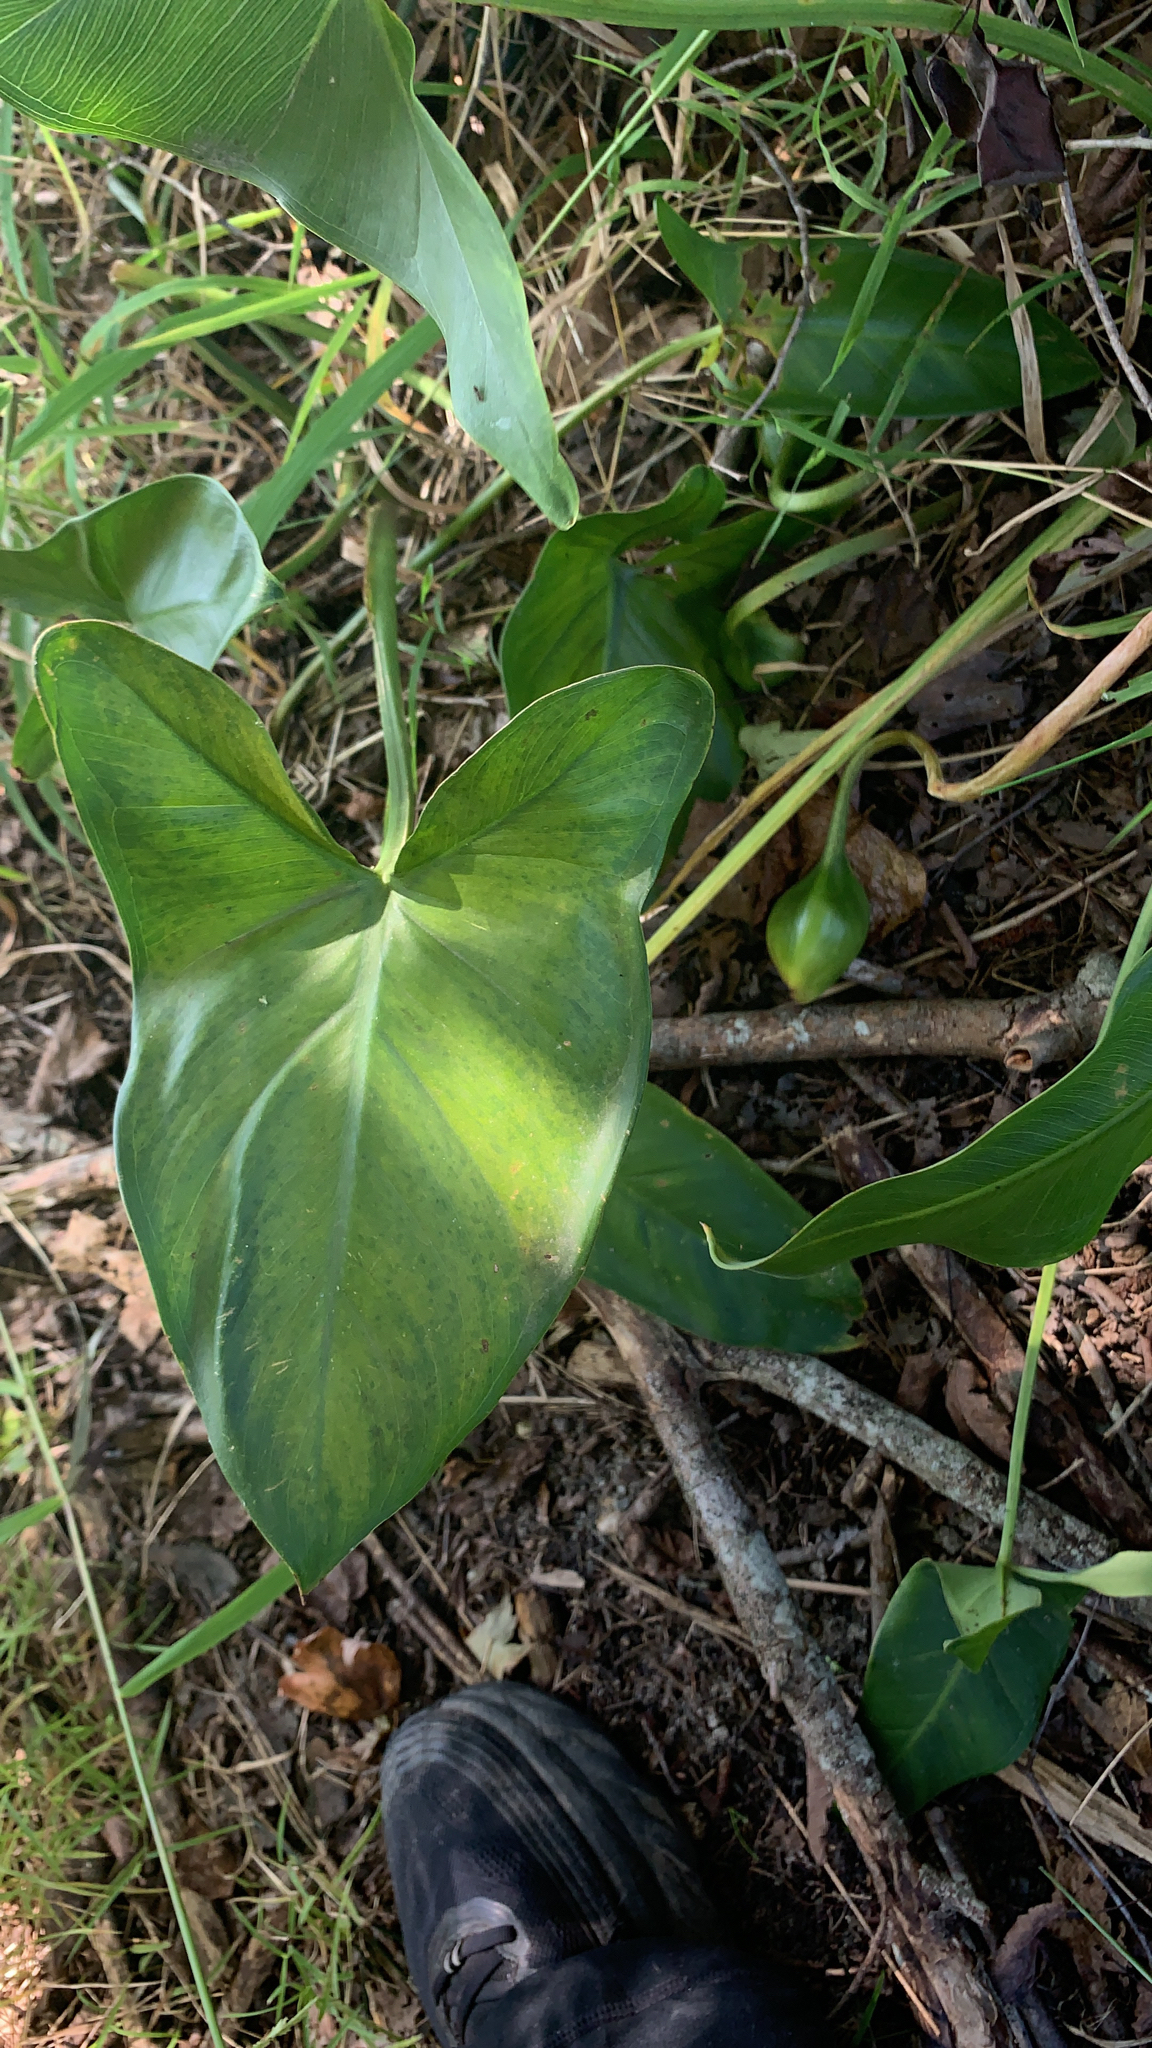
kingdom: Plantae
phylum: Tracheophyta
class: Liliopsida
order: Alismatales
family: Araceae
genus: Peltandra
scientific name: Peltandra virginica
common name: Arrow arum
